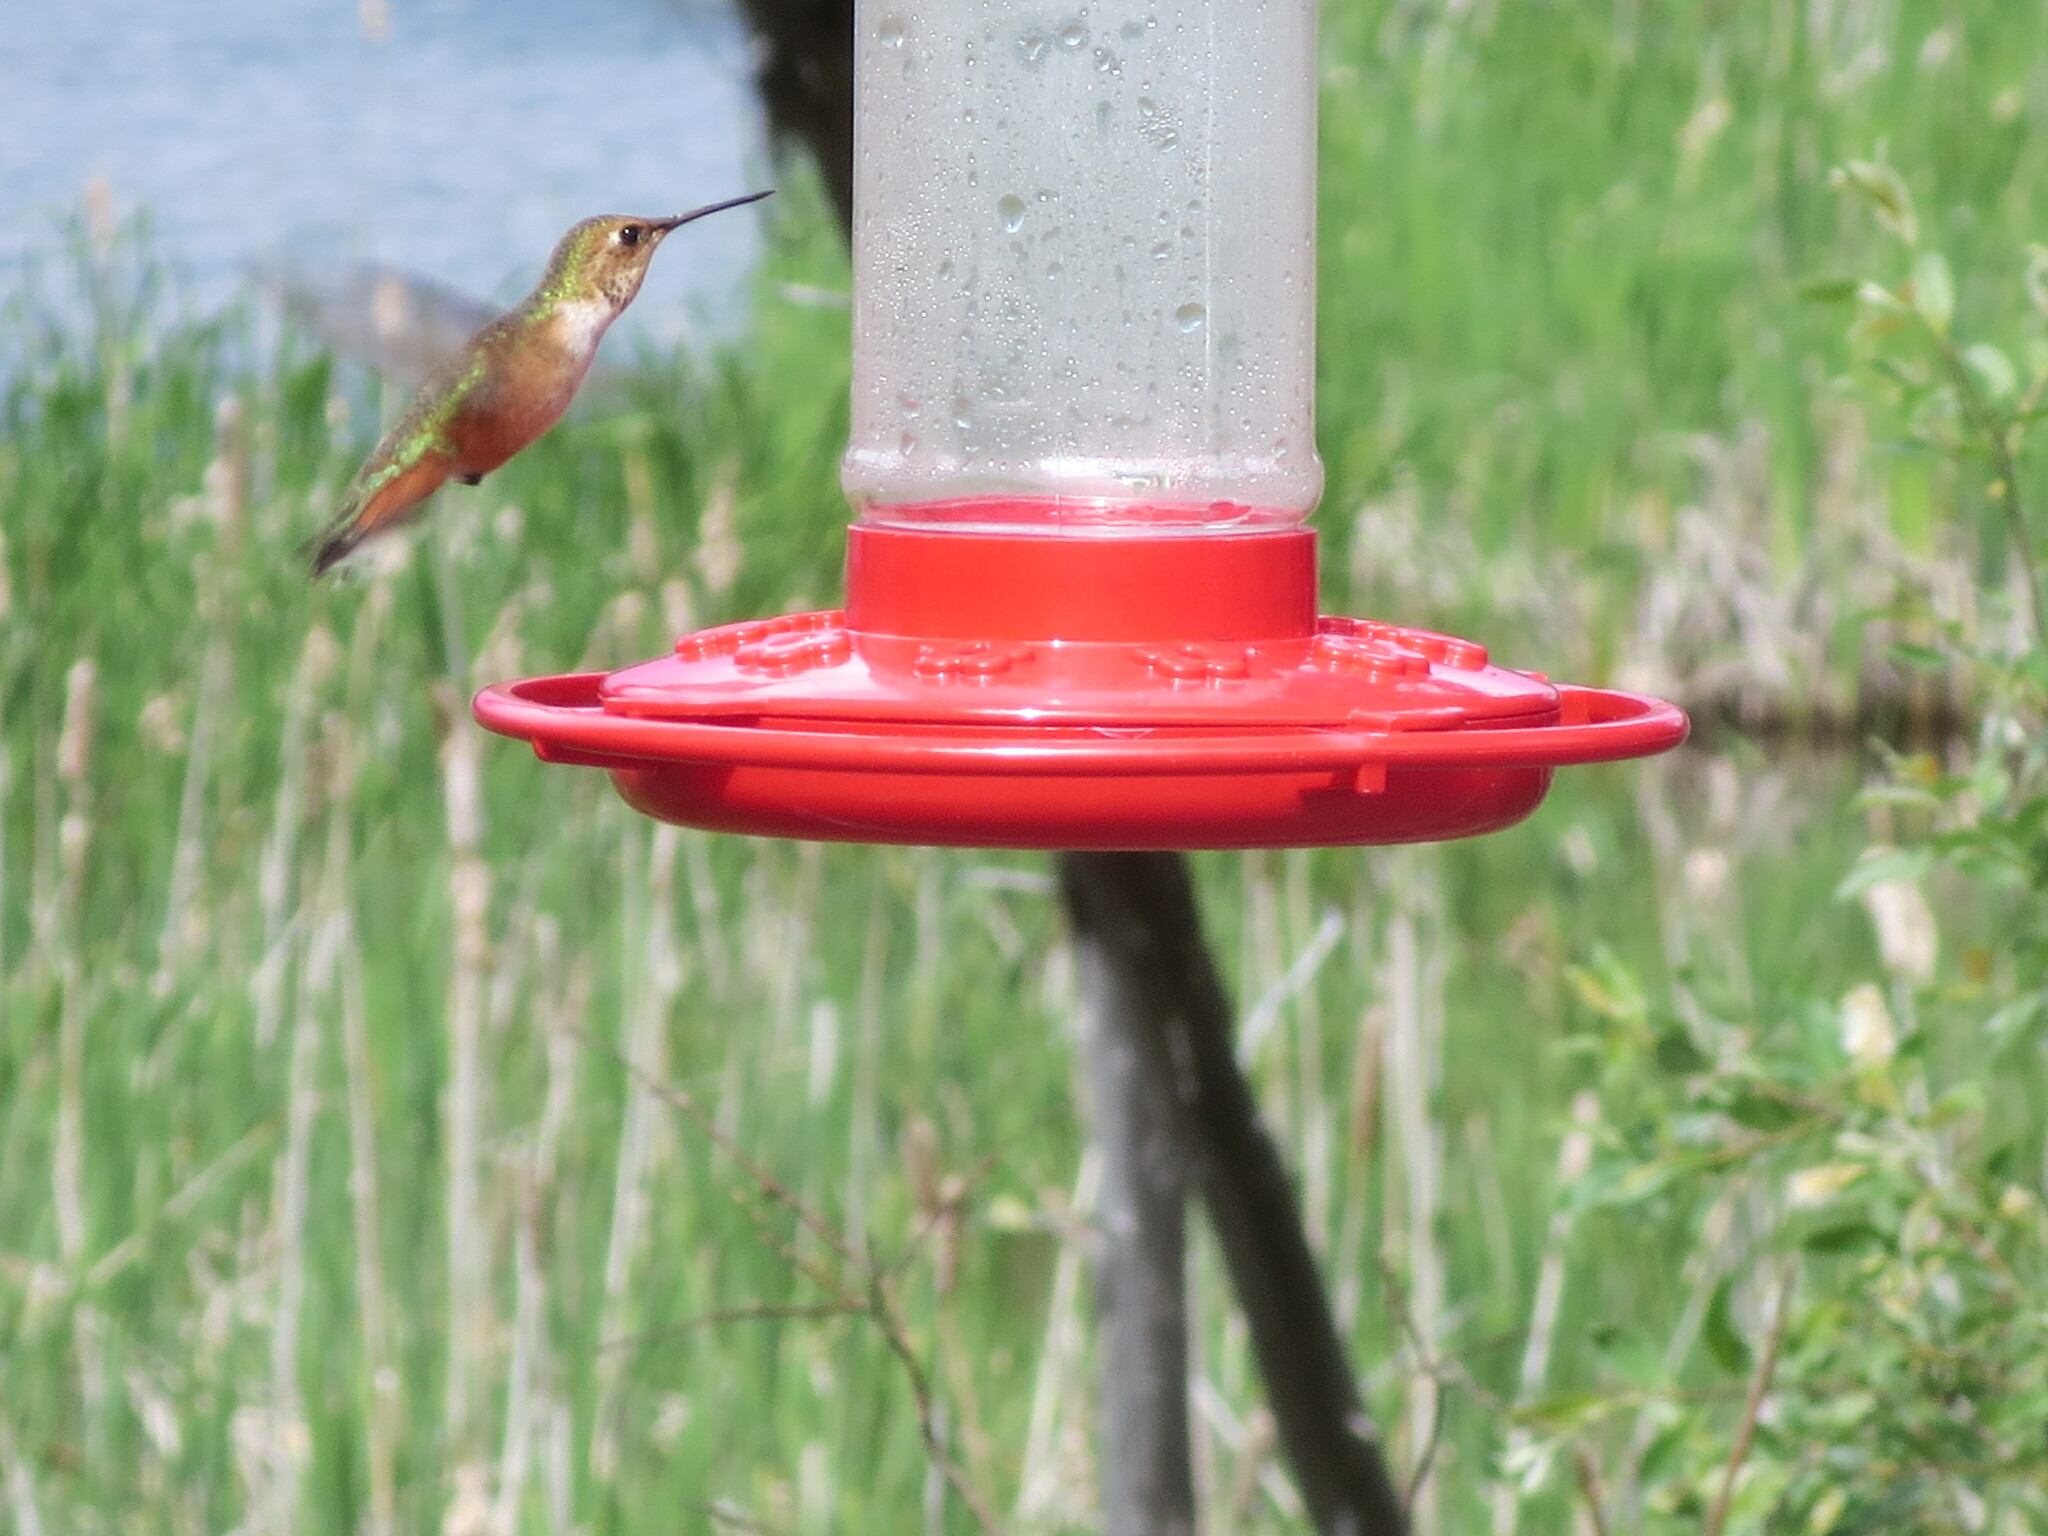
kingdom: Animalia
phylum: Chordata
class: Aves
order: Apodiformes
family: Trochilidae
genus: Selasphorus
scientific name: Selasphorus rufus
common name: Rufous hummingbird
